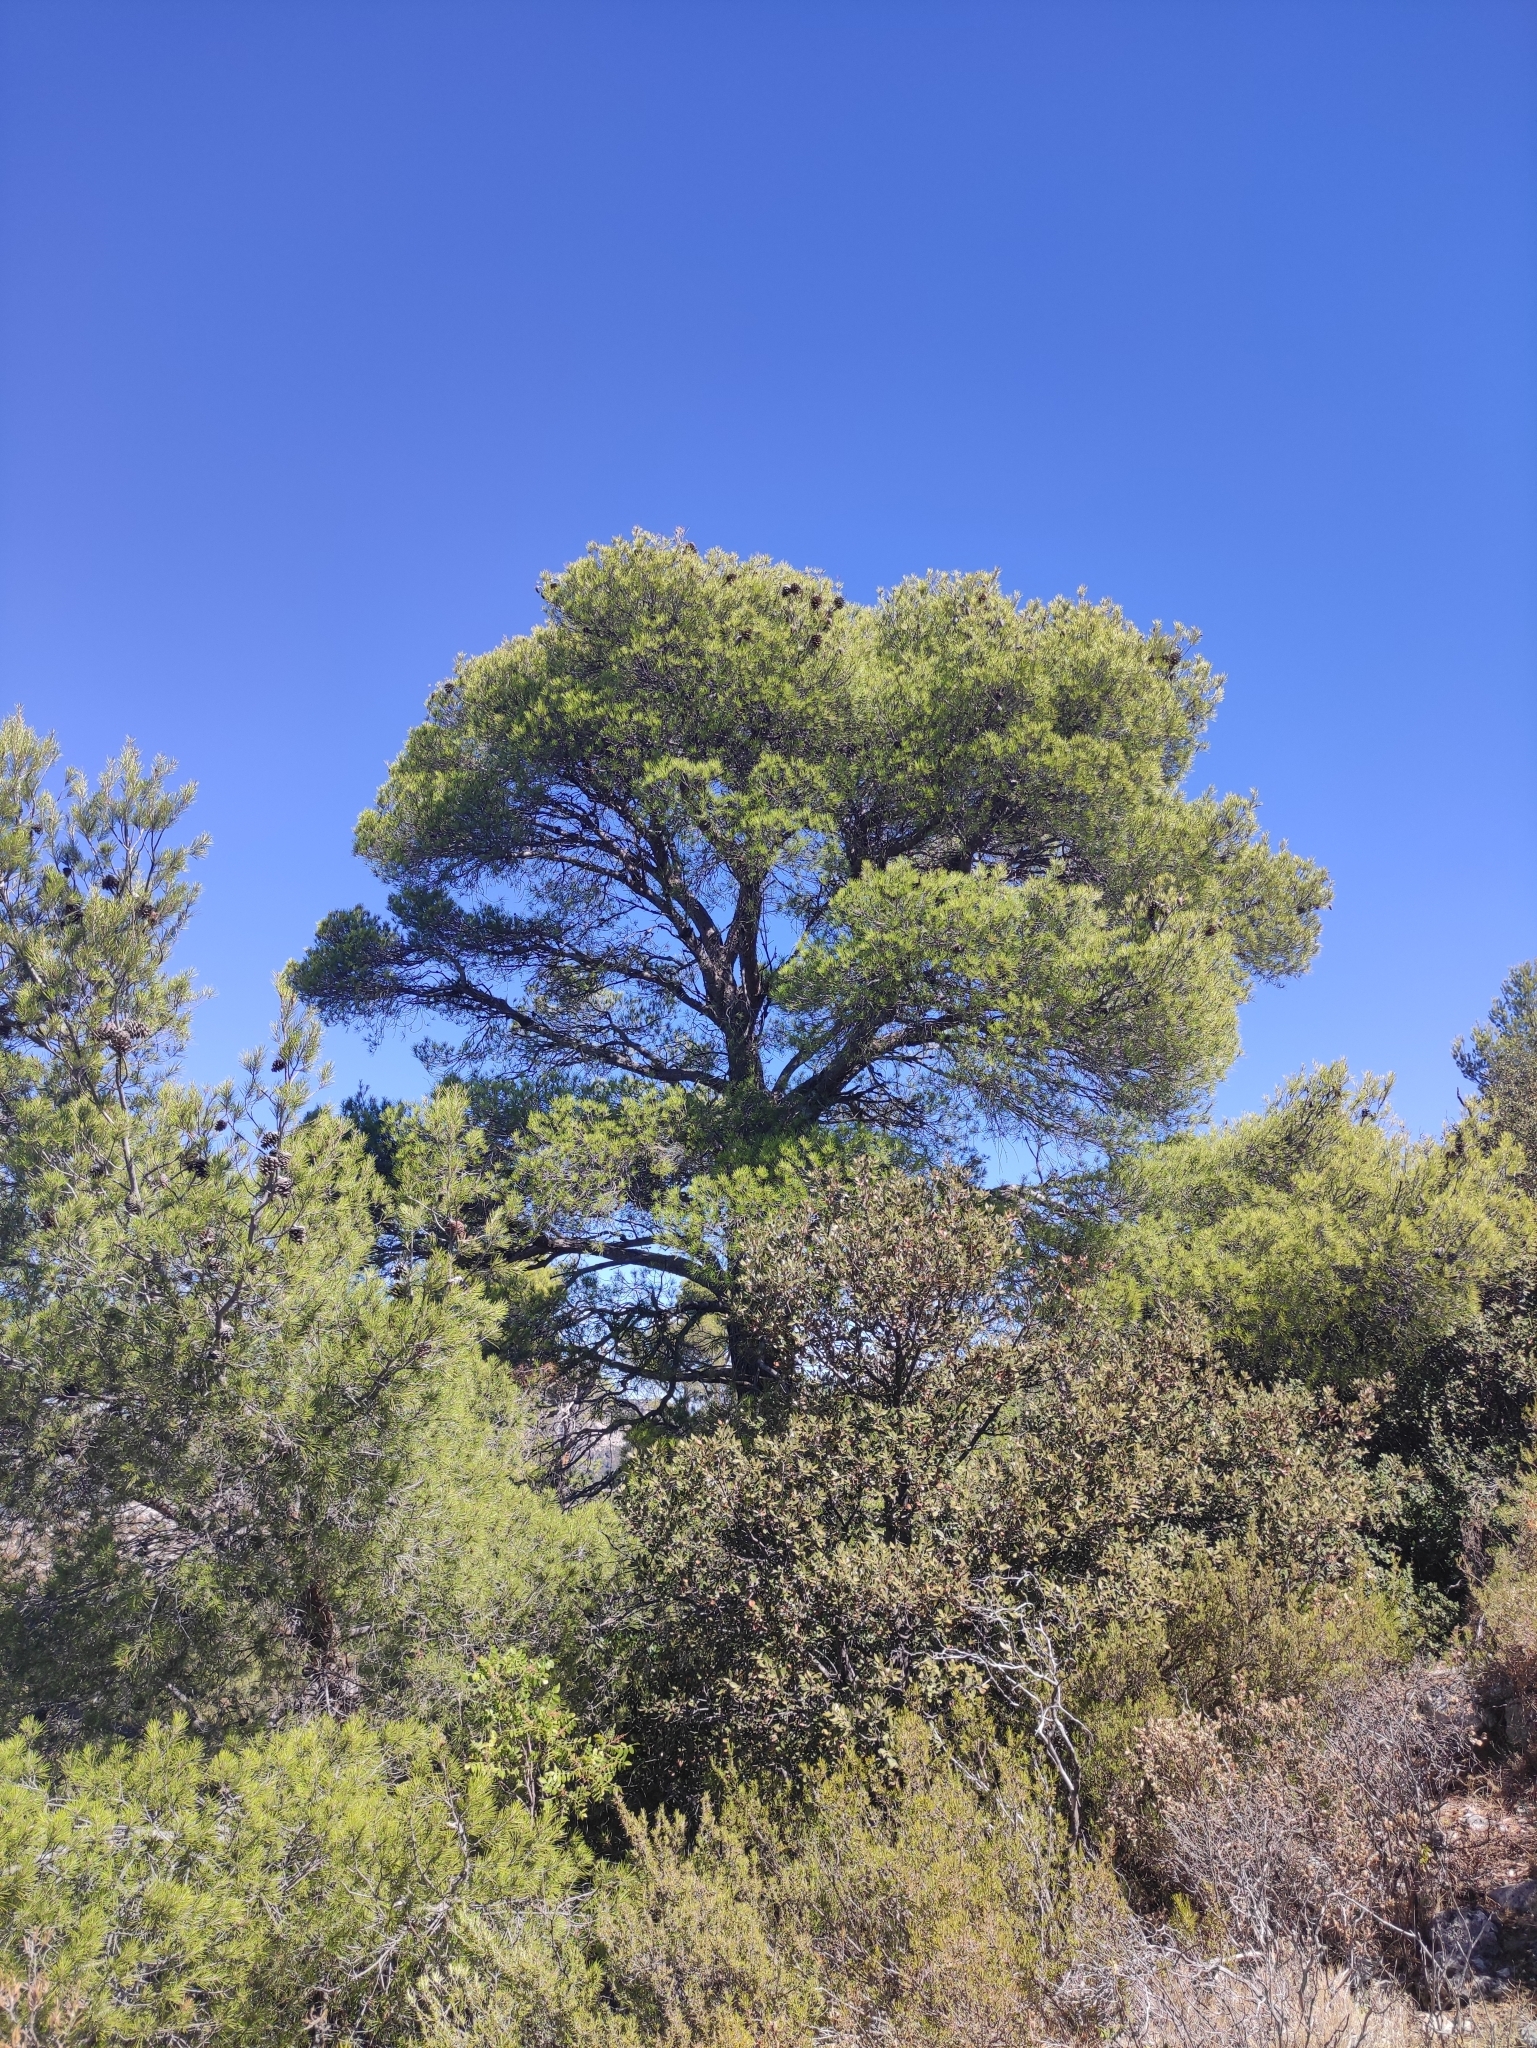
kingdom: Plantae
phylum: Tracheophyta
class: Pinopsida
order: Pinales
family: Pinaceae
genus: Pinus
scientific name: Pinus halepensis
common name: Aleppo pine
